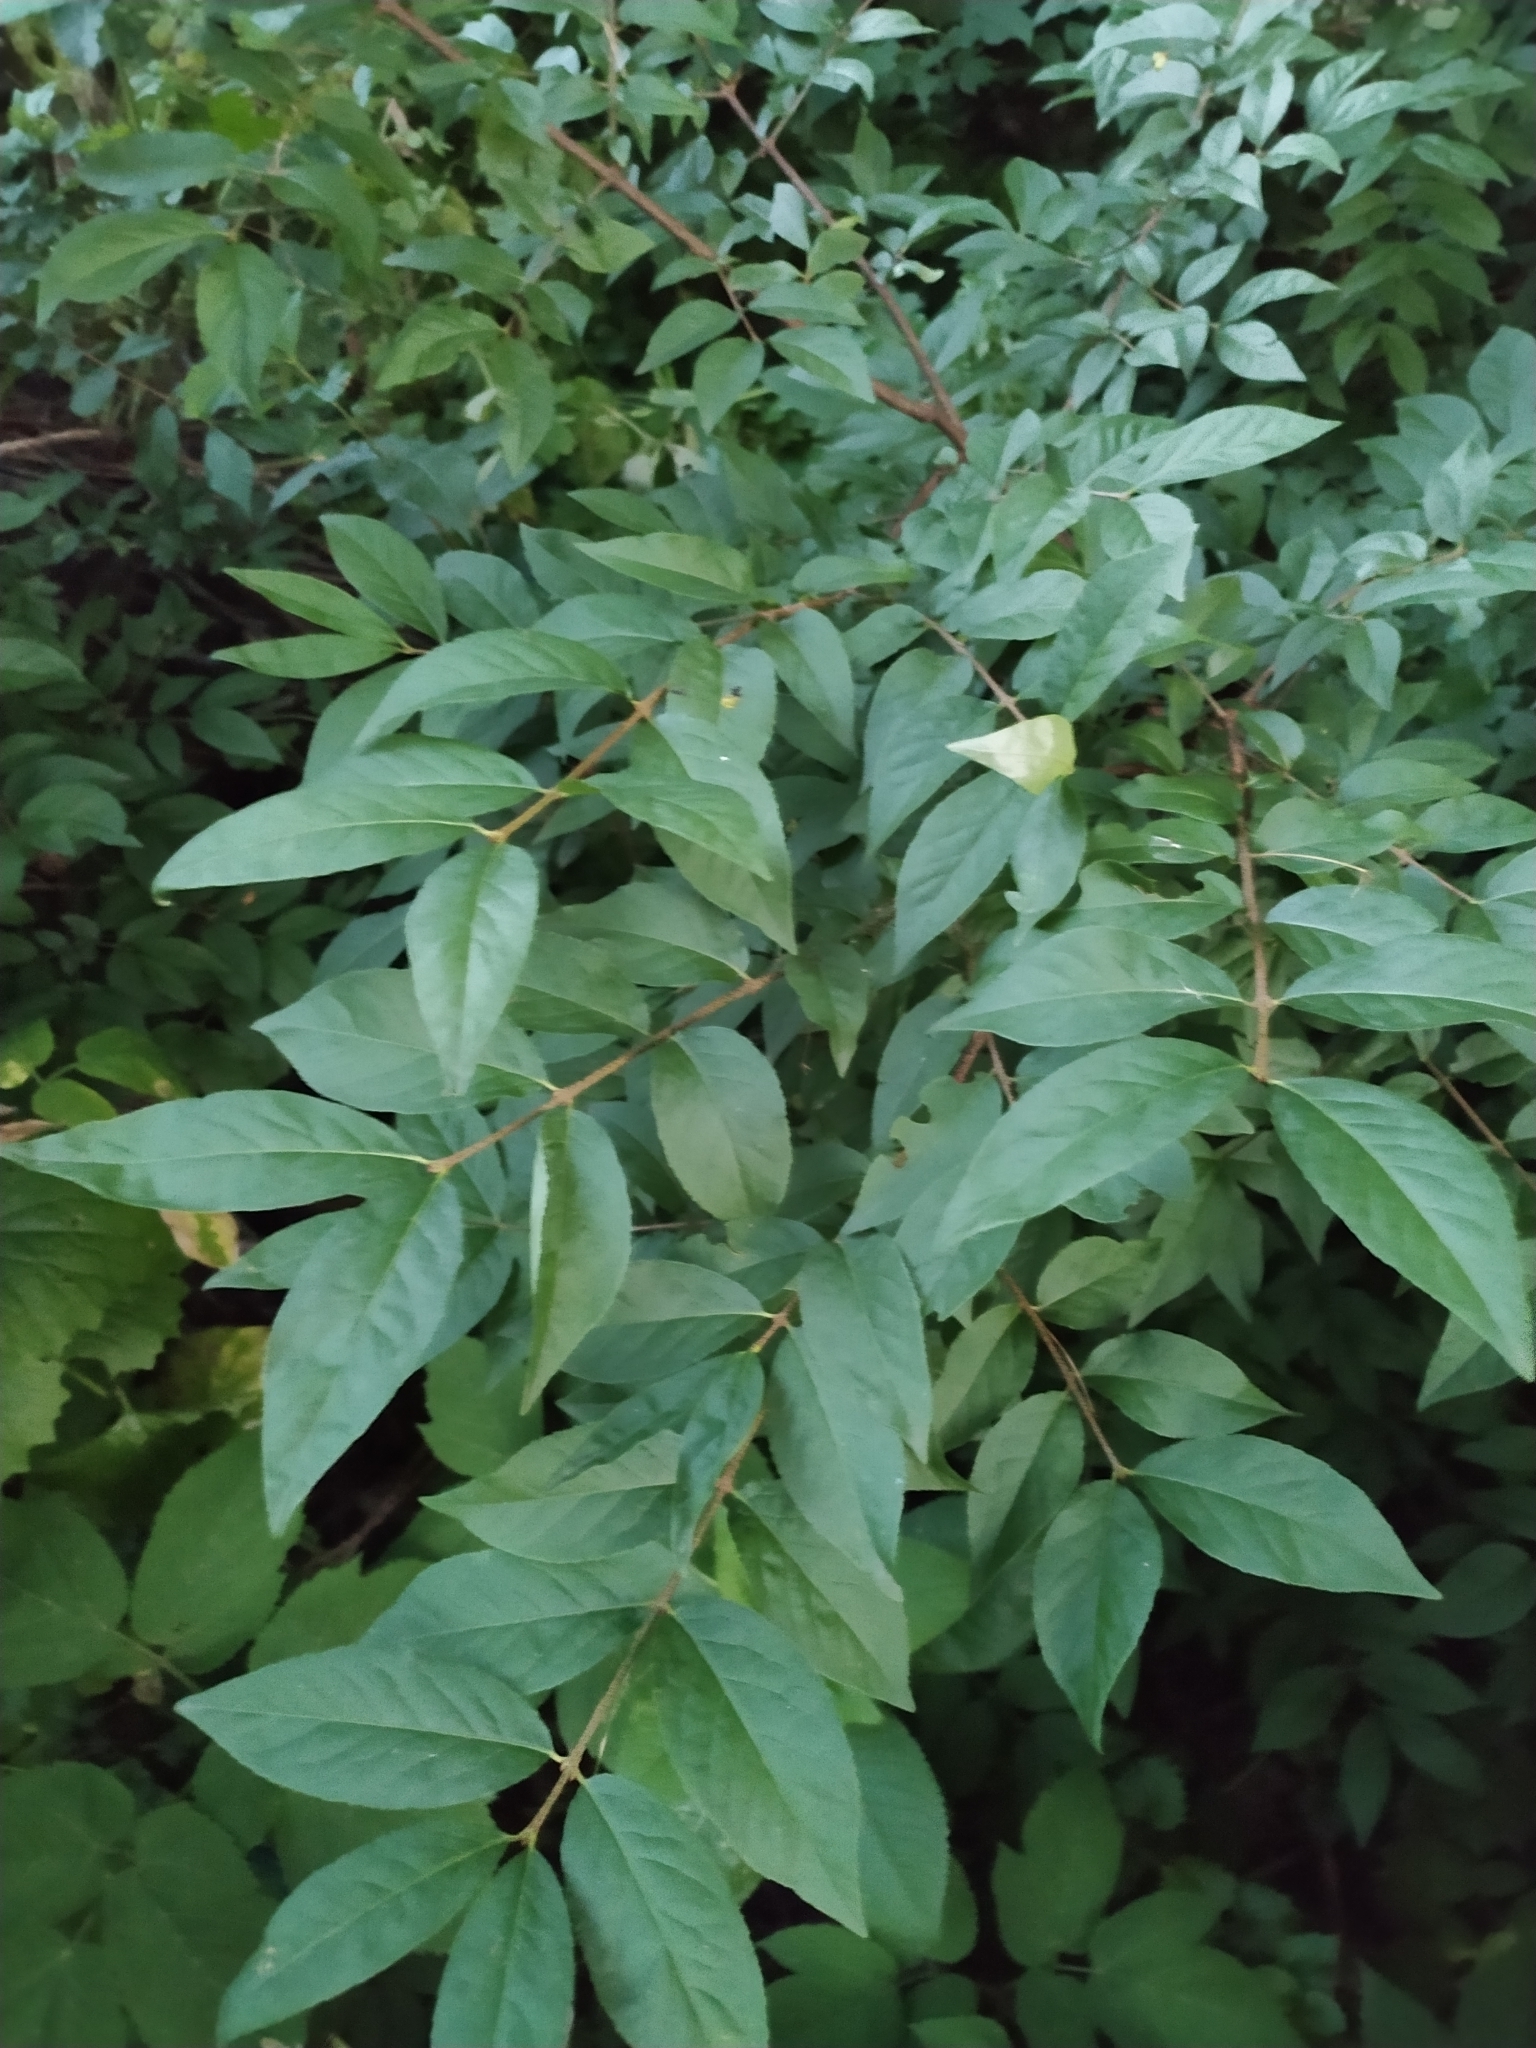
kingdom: Plantae
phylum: Tracheophyta
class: Magnoliopsida
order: Celastrales
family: Celastraceae
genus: Euonymus
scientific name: Euonymus verrucosus
